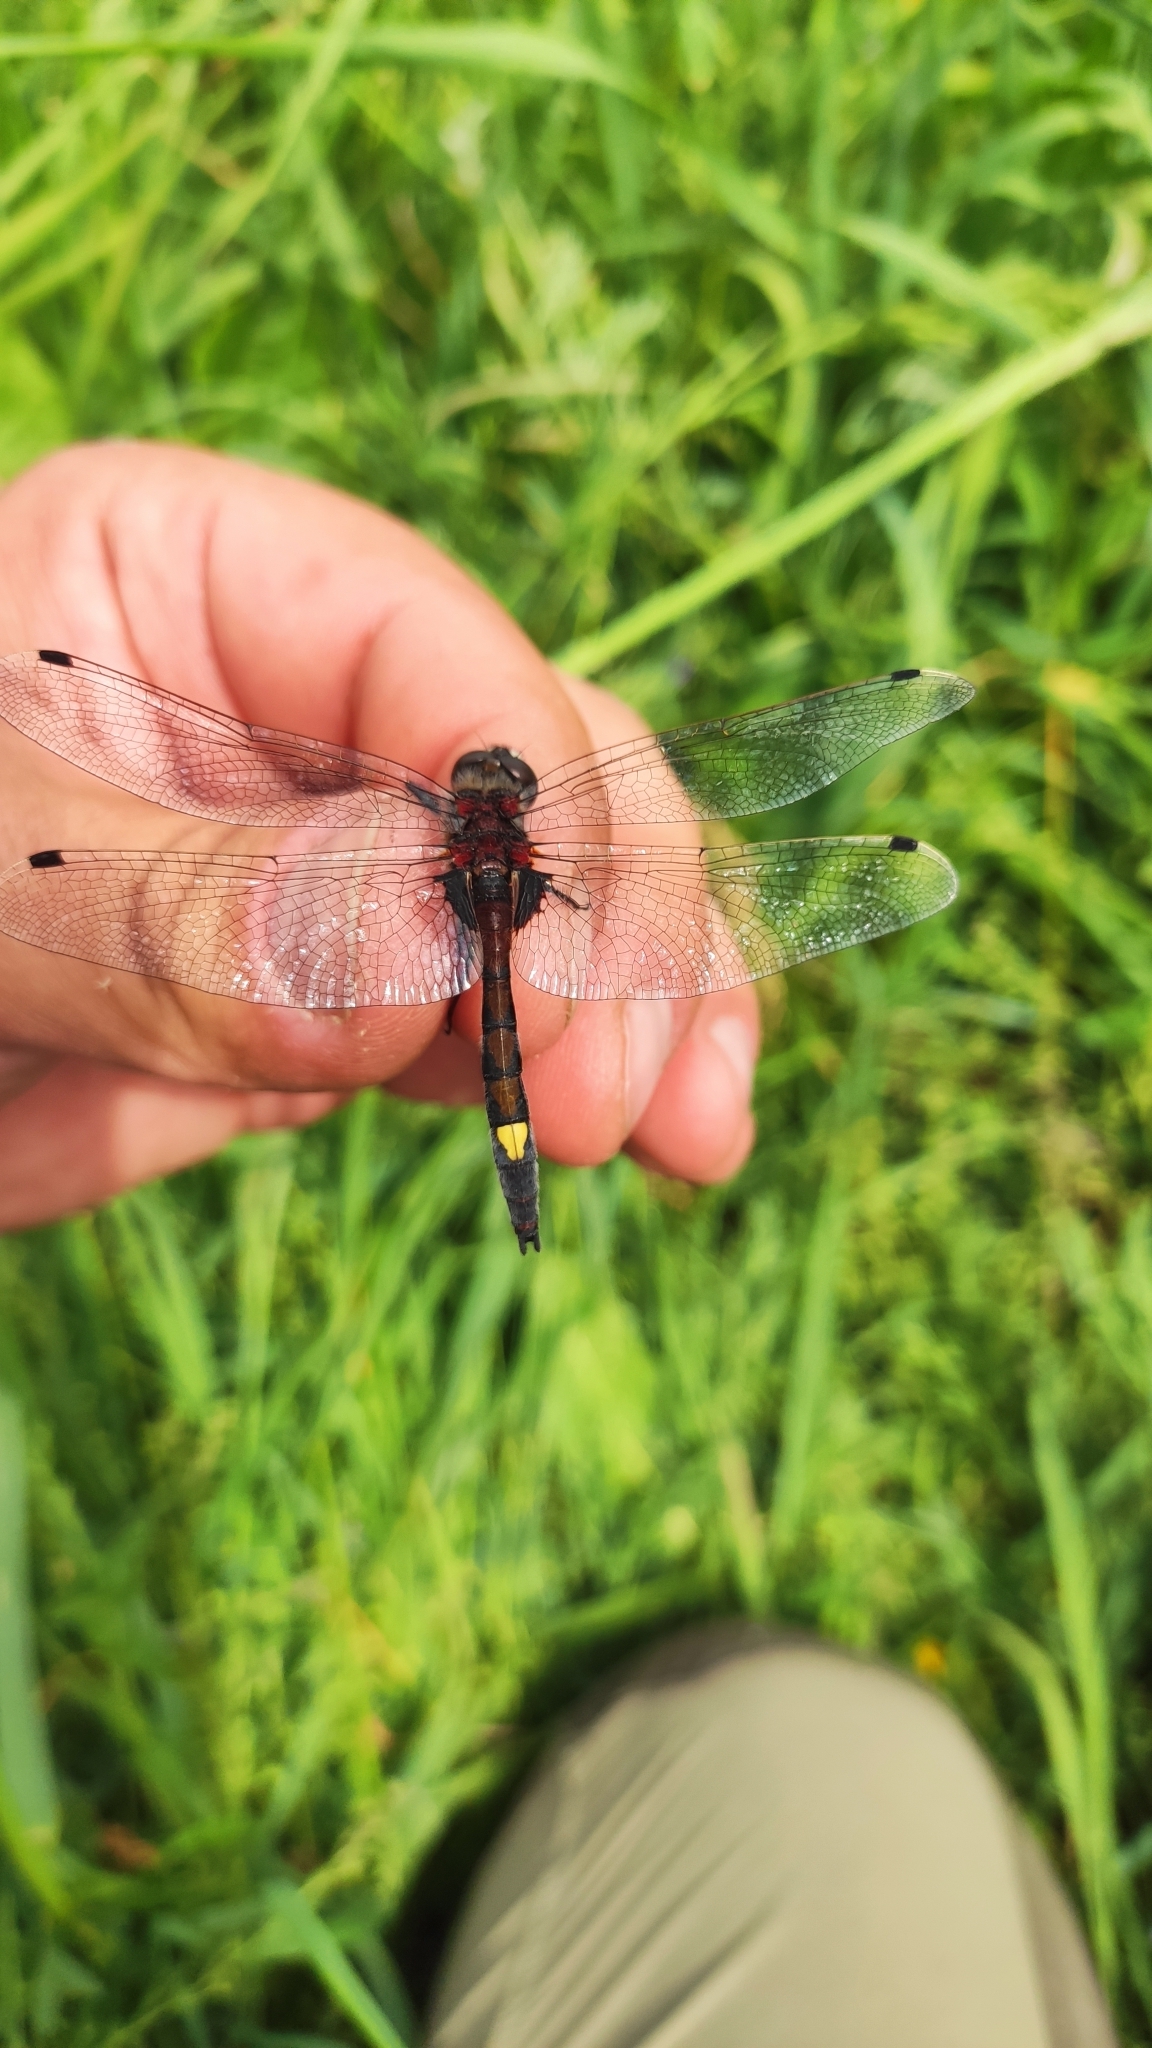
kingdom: Animalia
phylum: Arthropoda
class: Insecta
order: Odonata
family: Libellulidae
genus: Leucorrhinia
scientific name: Leucorrhinia pectoralis
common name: Yellow-spotted whiteface
